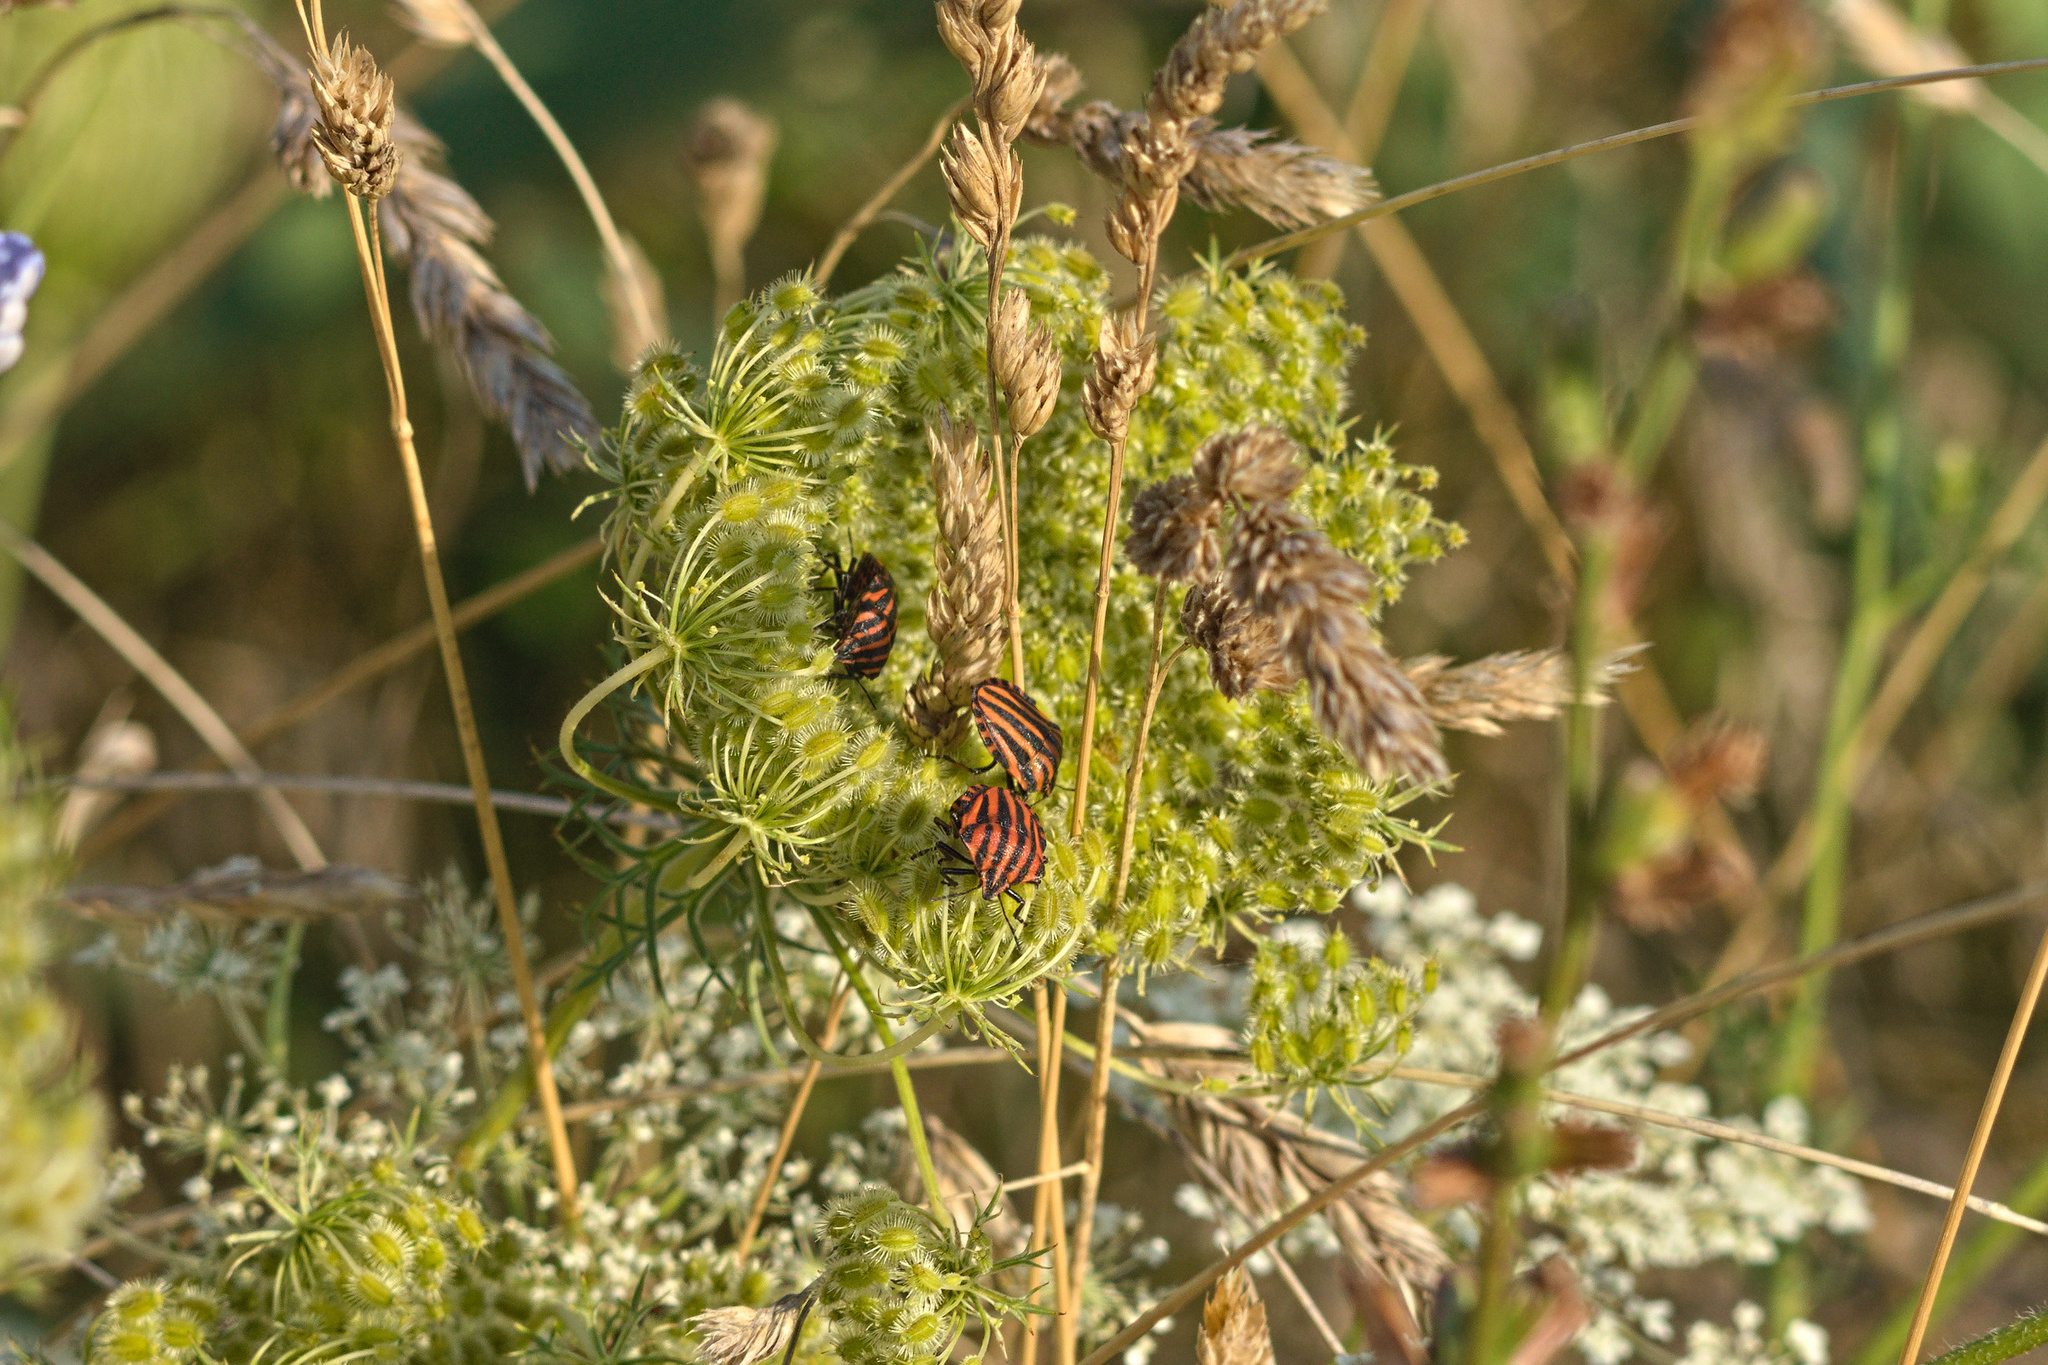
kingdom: Animalia
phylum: Arthropoda
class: Insecta
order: Hemiptera
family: Pentatomidae
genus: Graphosoma
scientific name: Graphosoma italicum
